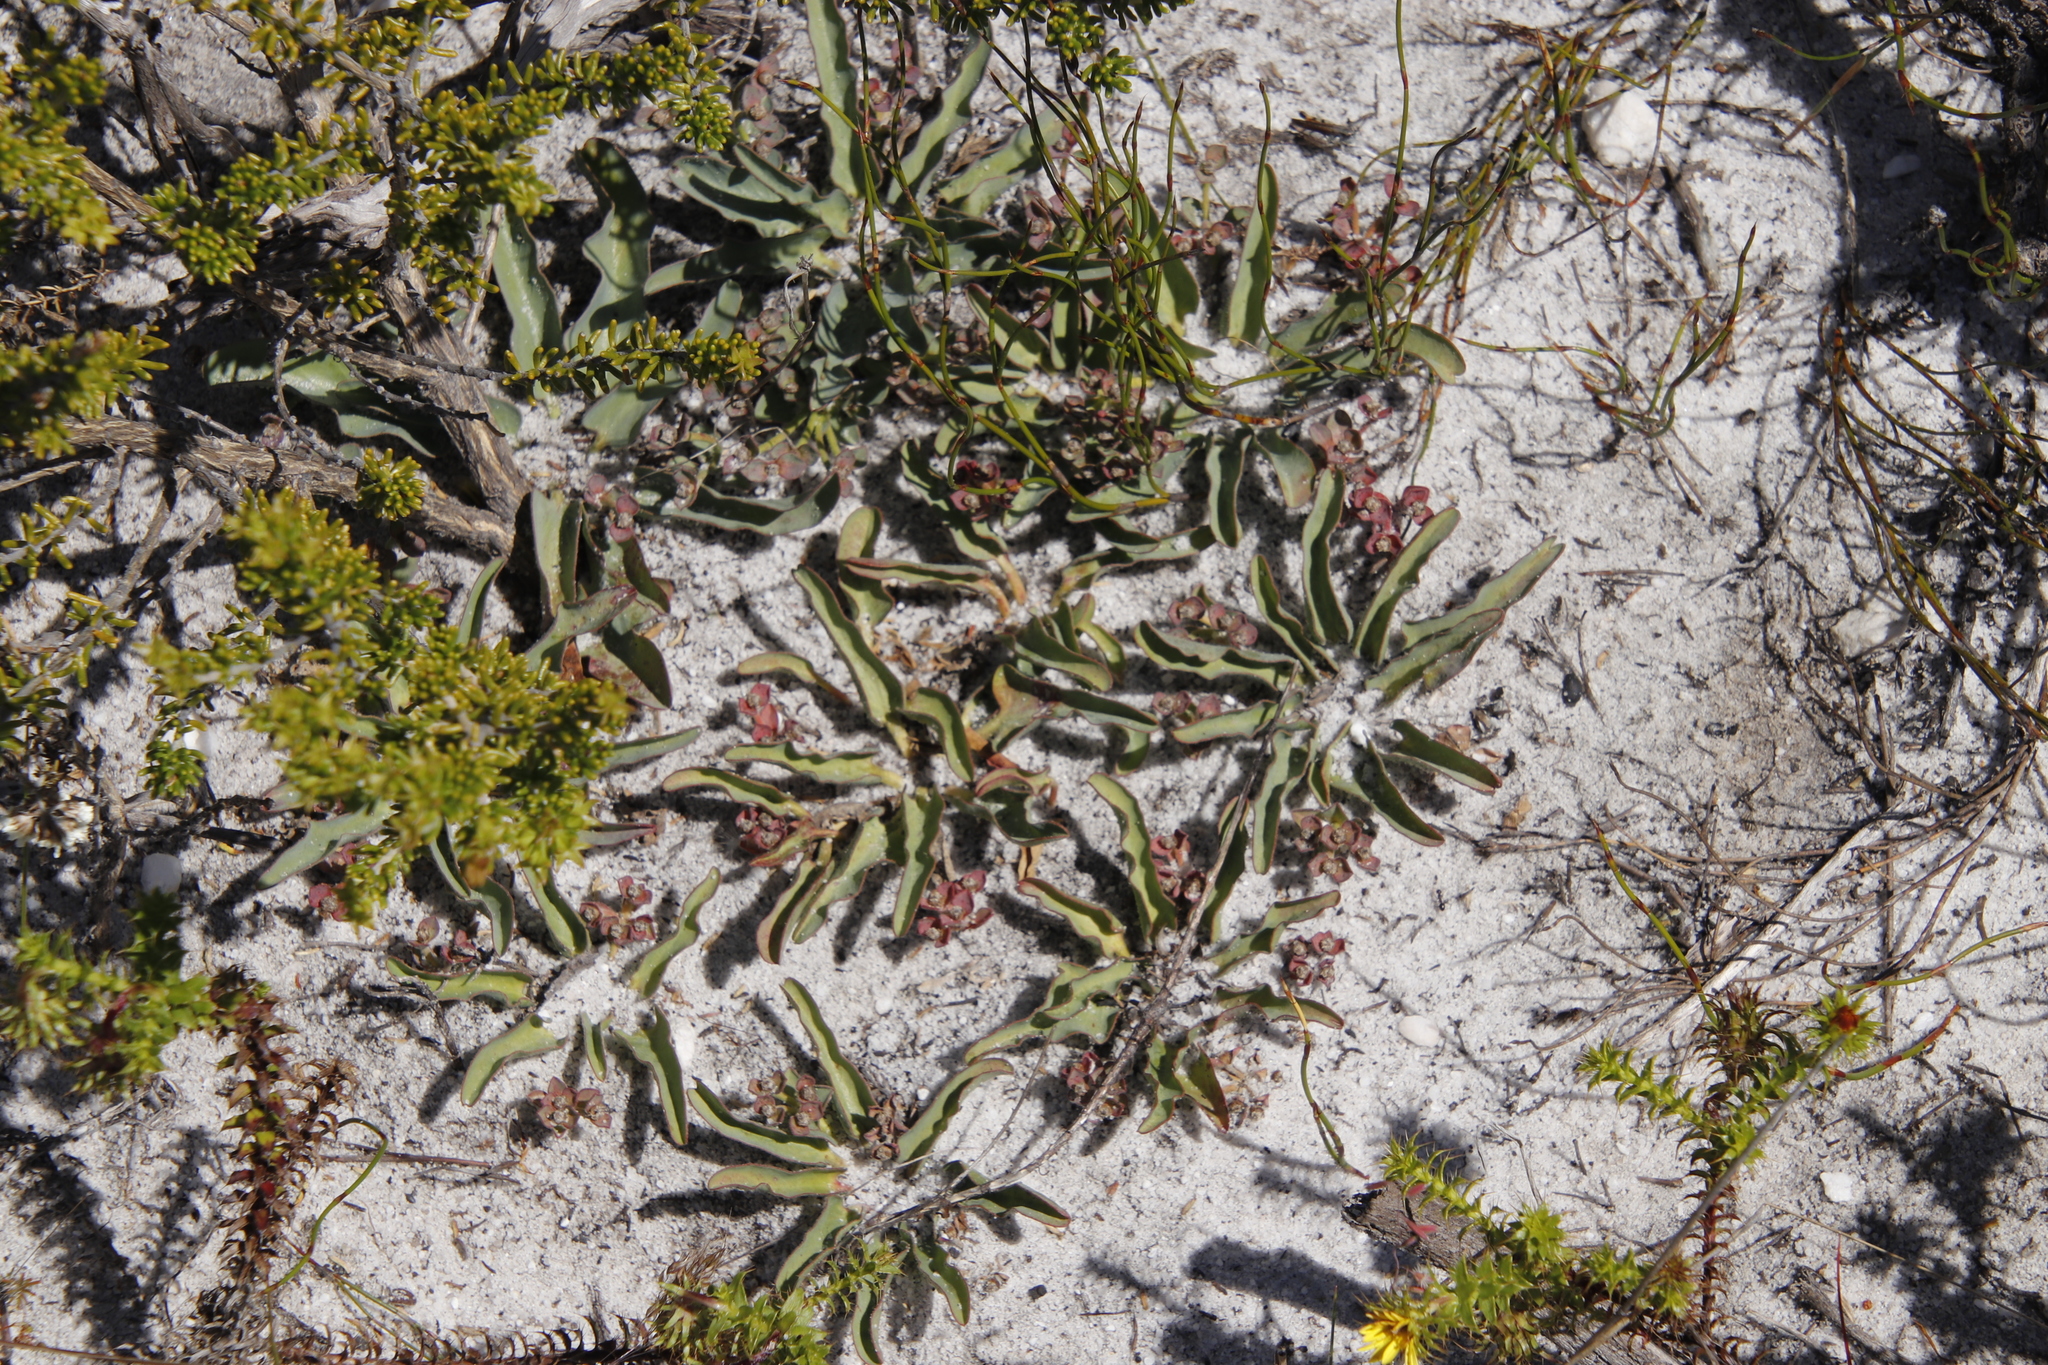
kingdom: Plantae
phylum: Tracheophyta
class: Magnoliopsida
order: Malpighiales
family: Euphorbiaceae
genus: Euphorbia
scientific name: Euphorbia tuberosa
